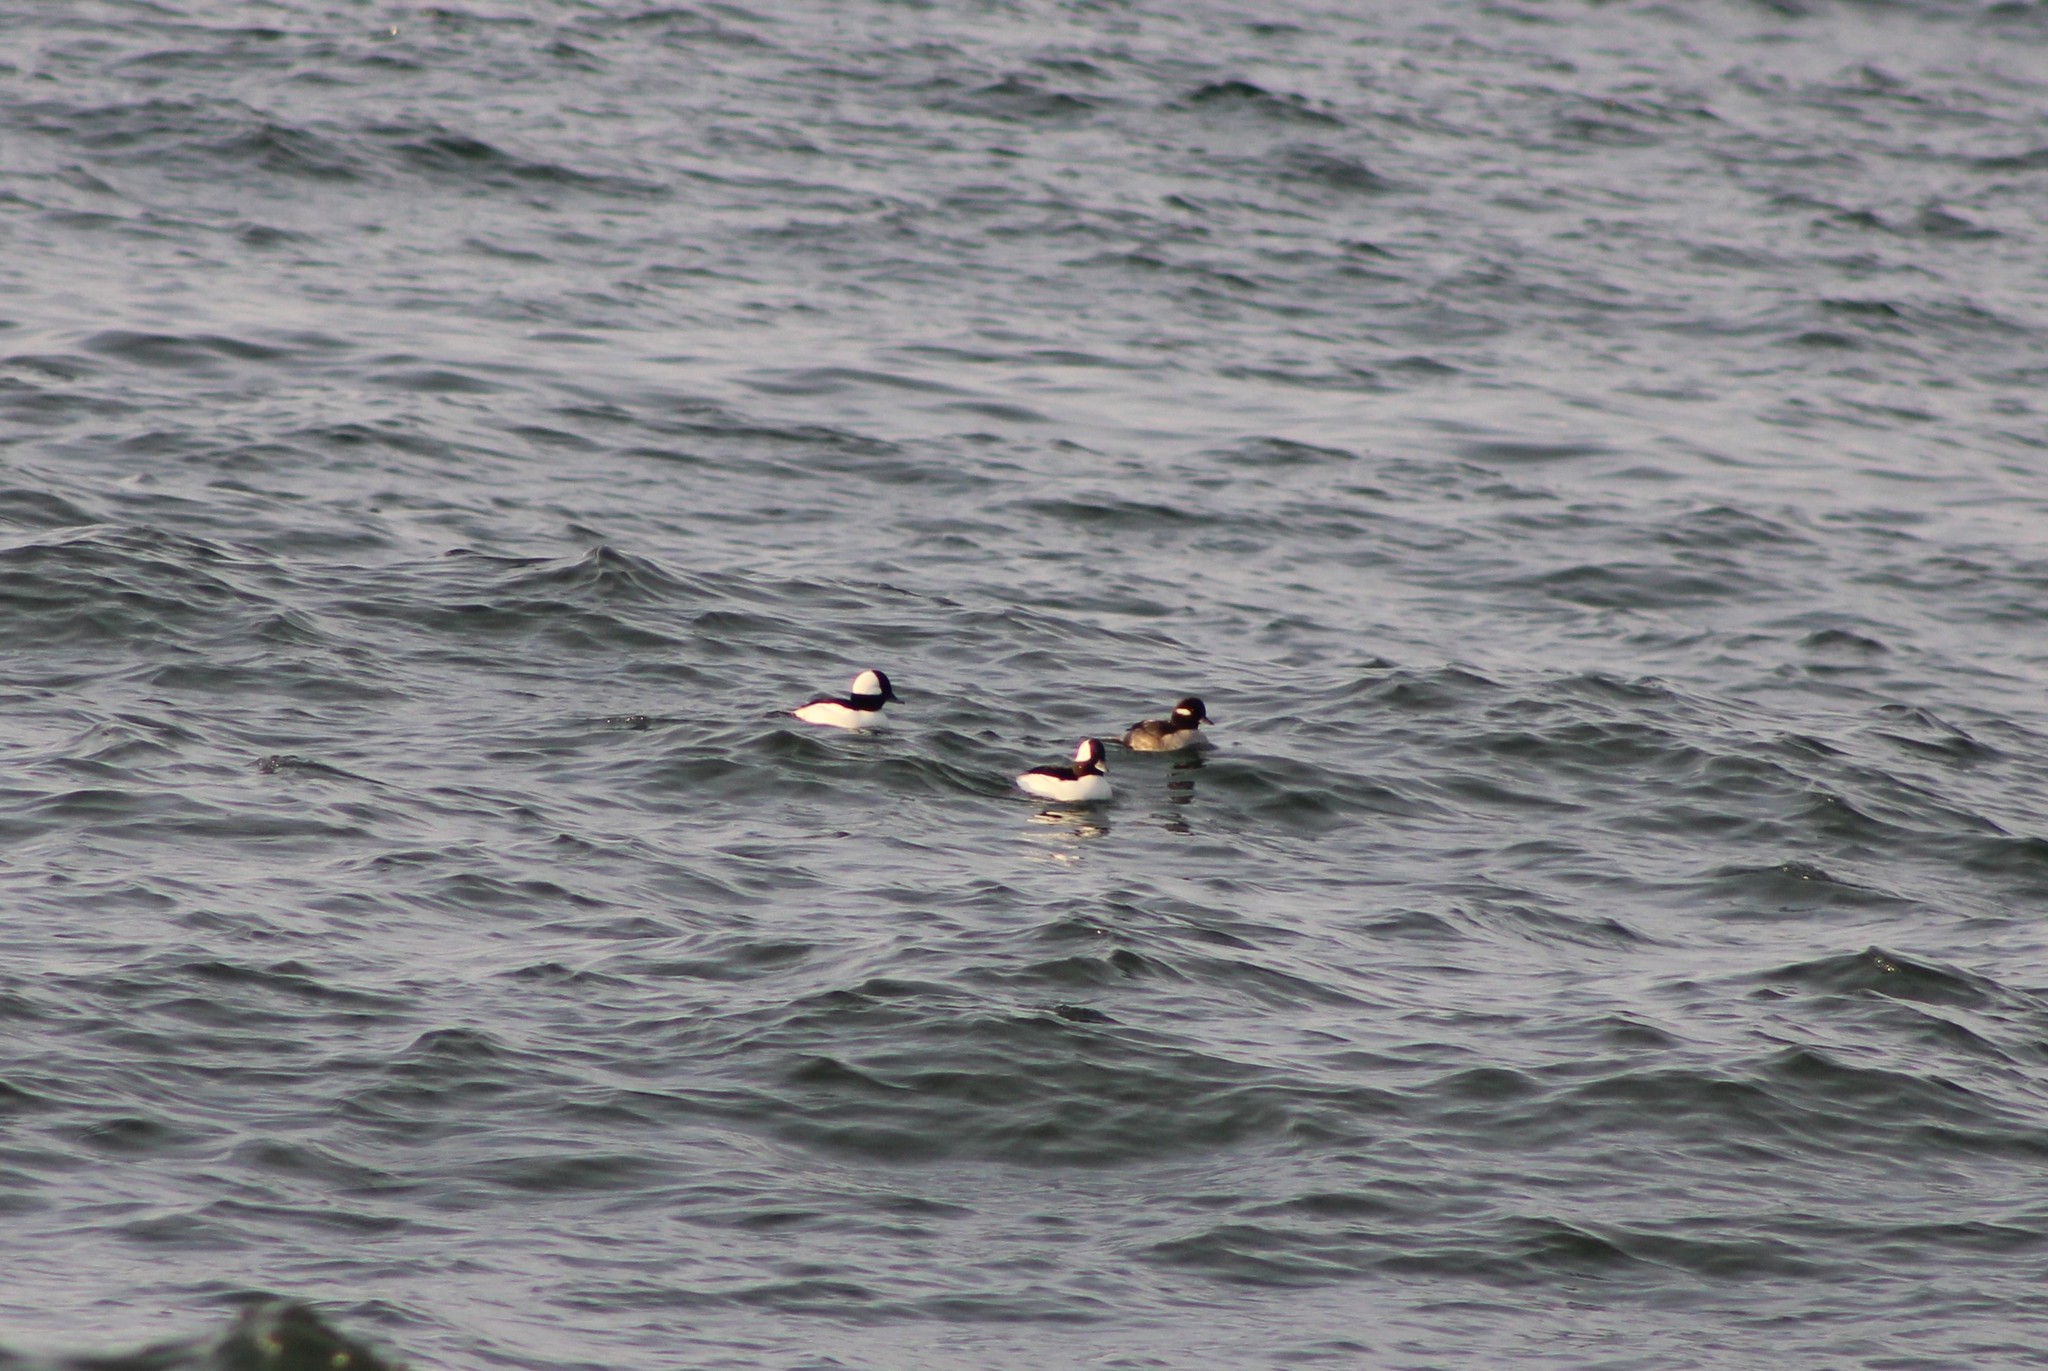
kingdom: Animalia
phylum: Chordata
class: Aves
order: Anseriformes
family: Anatidae
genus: Bucephala
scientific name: Bucephala albeola
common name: Bufflehead
